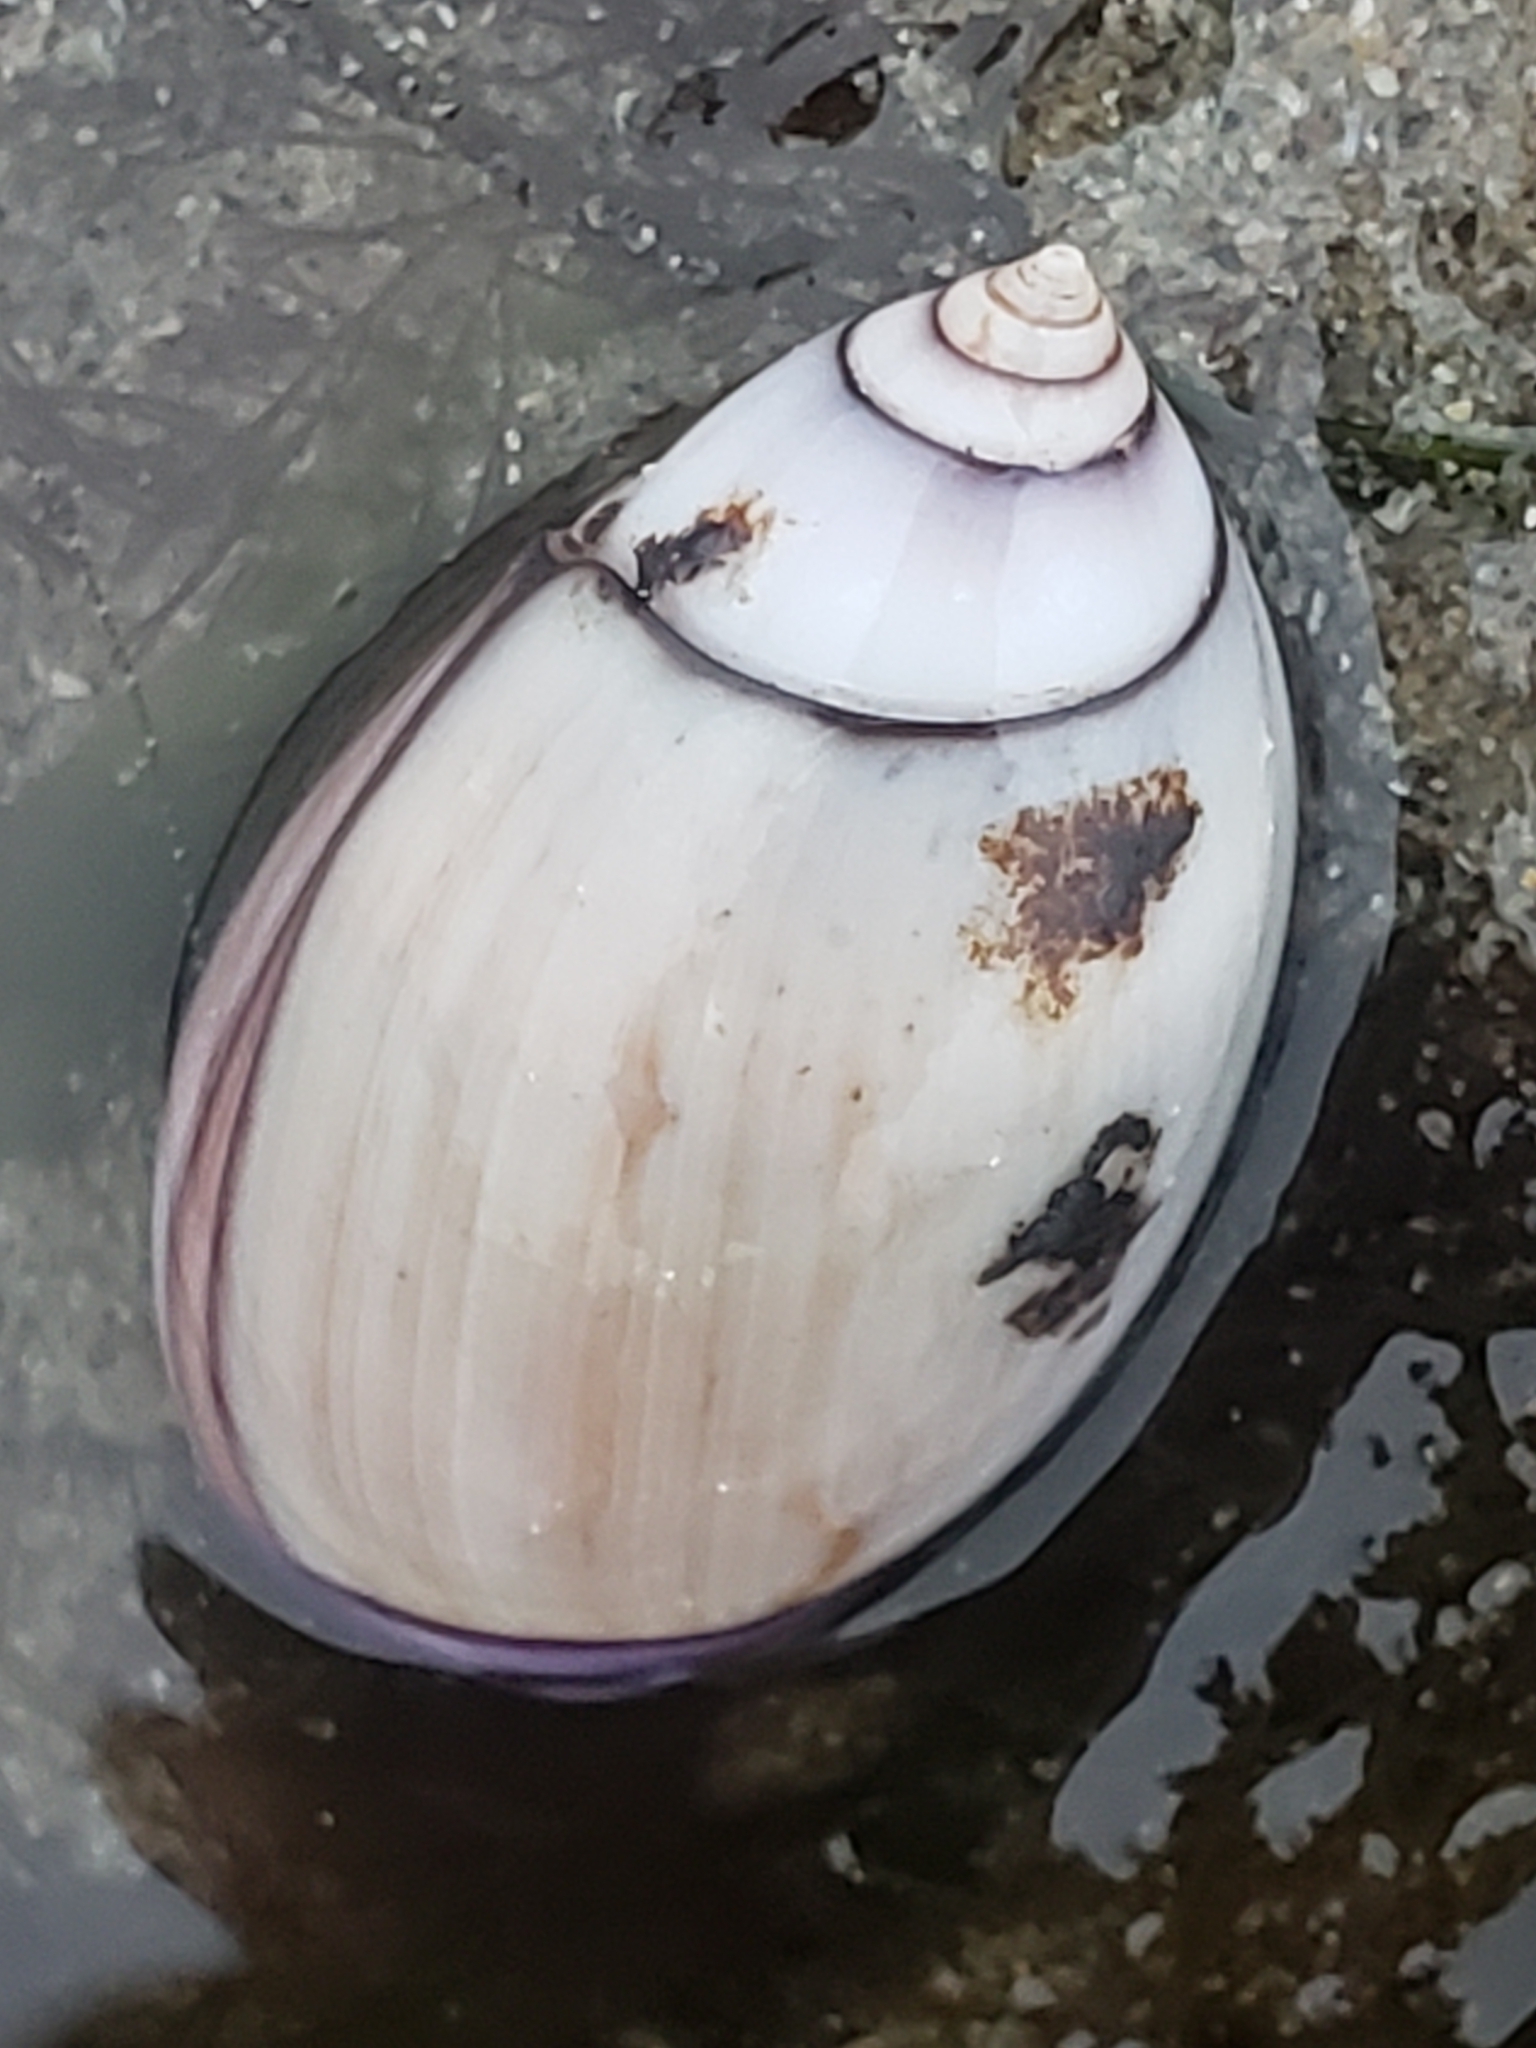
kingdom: Animalia
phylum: Mollusca
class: Gastropoda
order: Neogastropoda
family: Olividae
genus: Callianax
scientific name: Callianax biplicata
